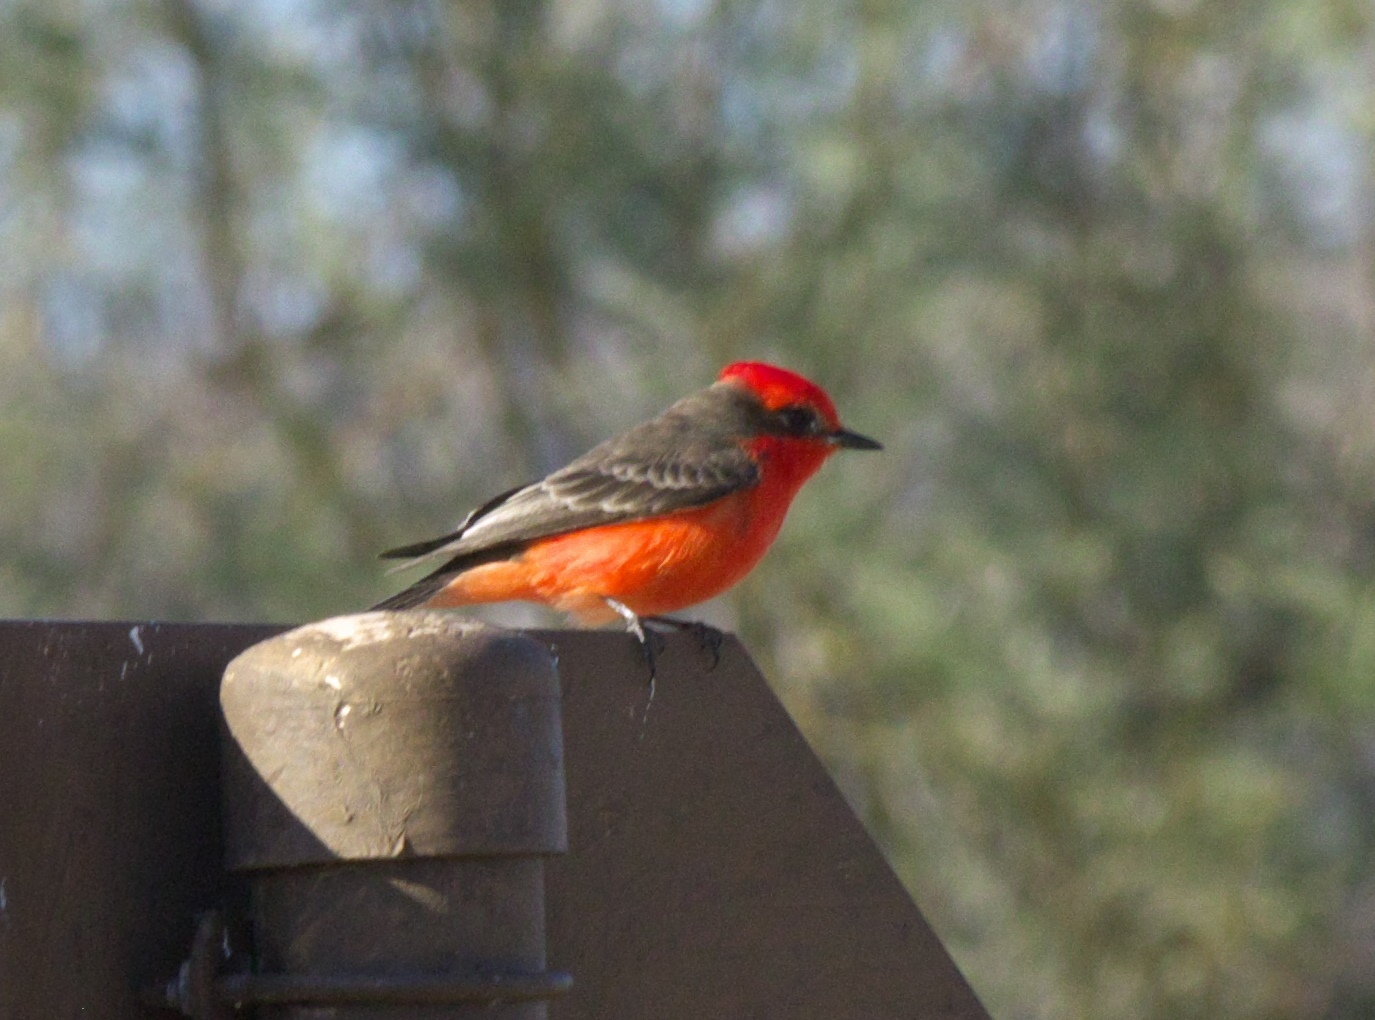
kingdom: Animalia
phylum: Chordata
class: Aves
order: Passeriformes
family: Tyrannidae
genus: Pyrocephalus
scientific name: Pyrocephalus rubinus
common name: Vermilion flycatcher
